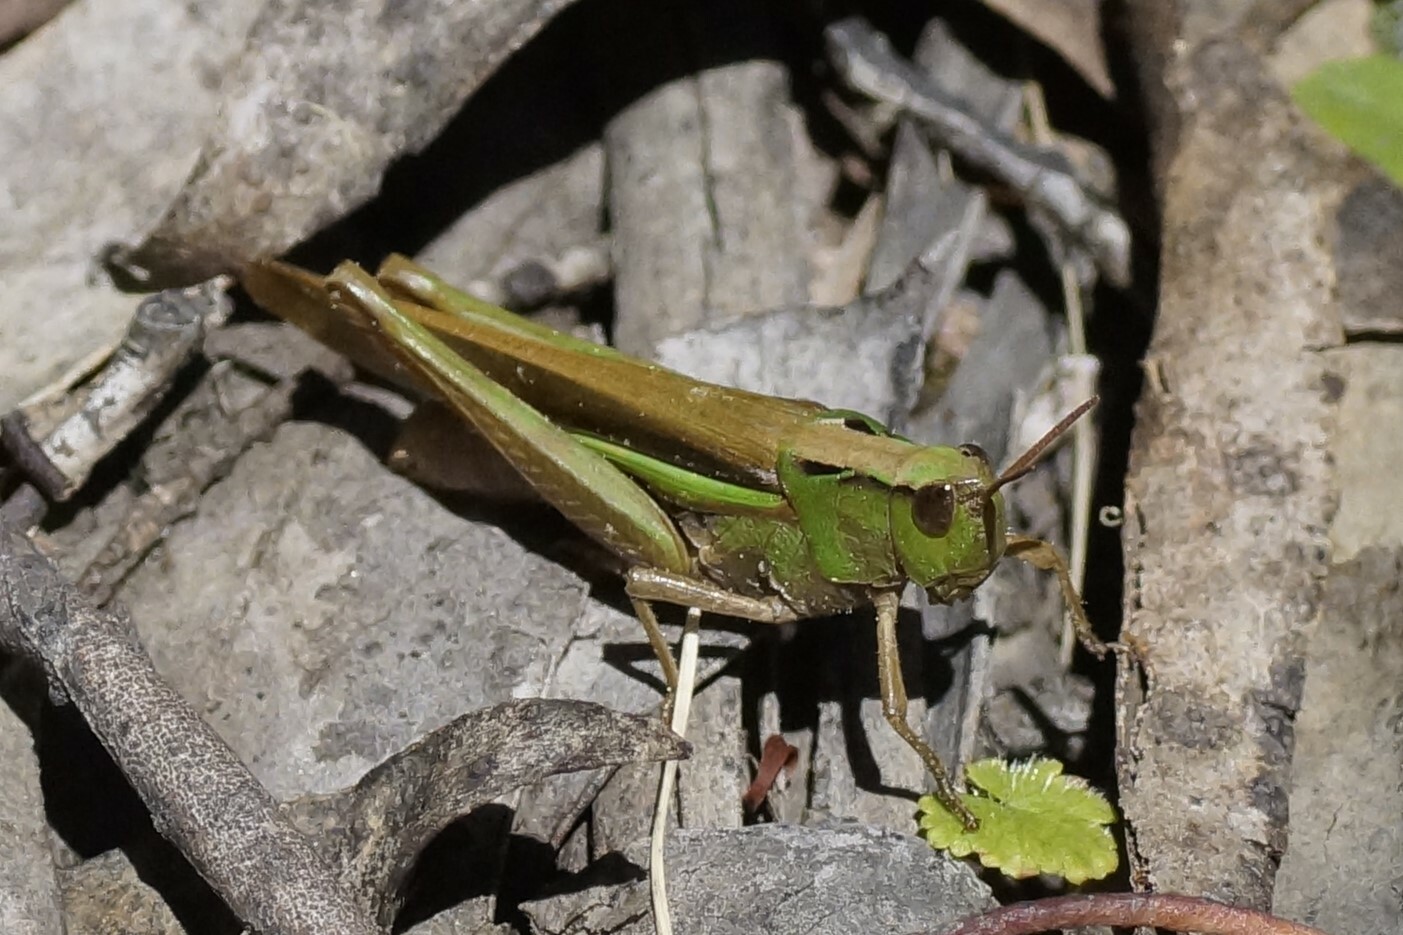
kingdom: Animalia
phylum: Arthropoda
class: Insecta
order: Orthoptera
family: Acrididae
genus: Schizobothrus
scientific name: Schizobothrus flavovittatus
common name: Disappearing grasshopper
